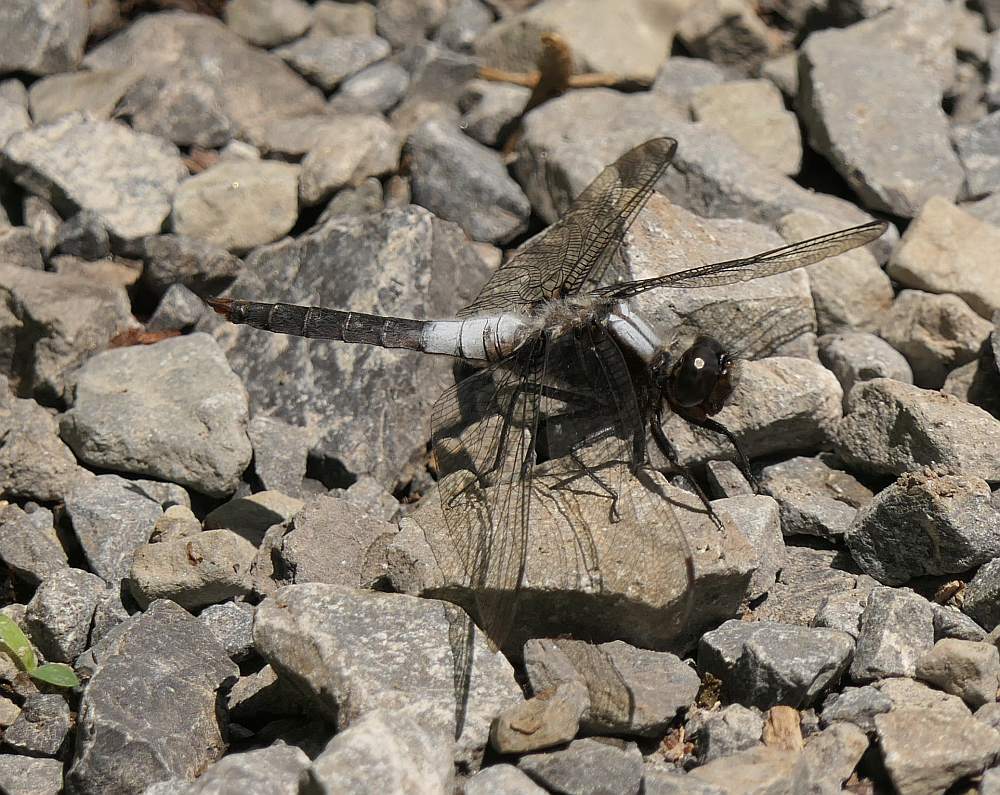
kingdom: Animalia
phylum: Arthropoda
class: Insecta
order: Odonata
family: Libellulidae
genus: Ladona
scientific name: Ladona julia
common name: Chalk-fronted corporal
